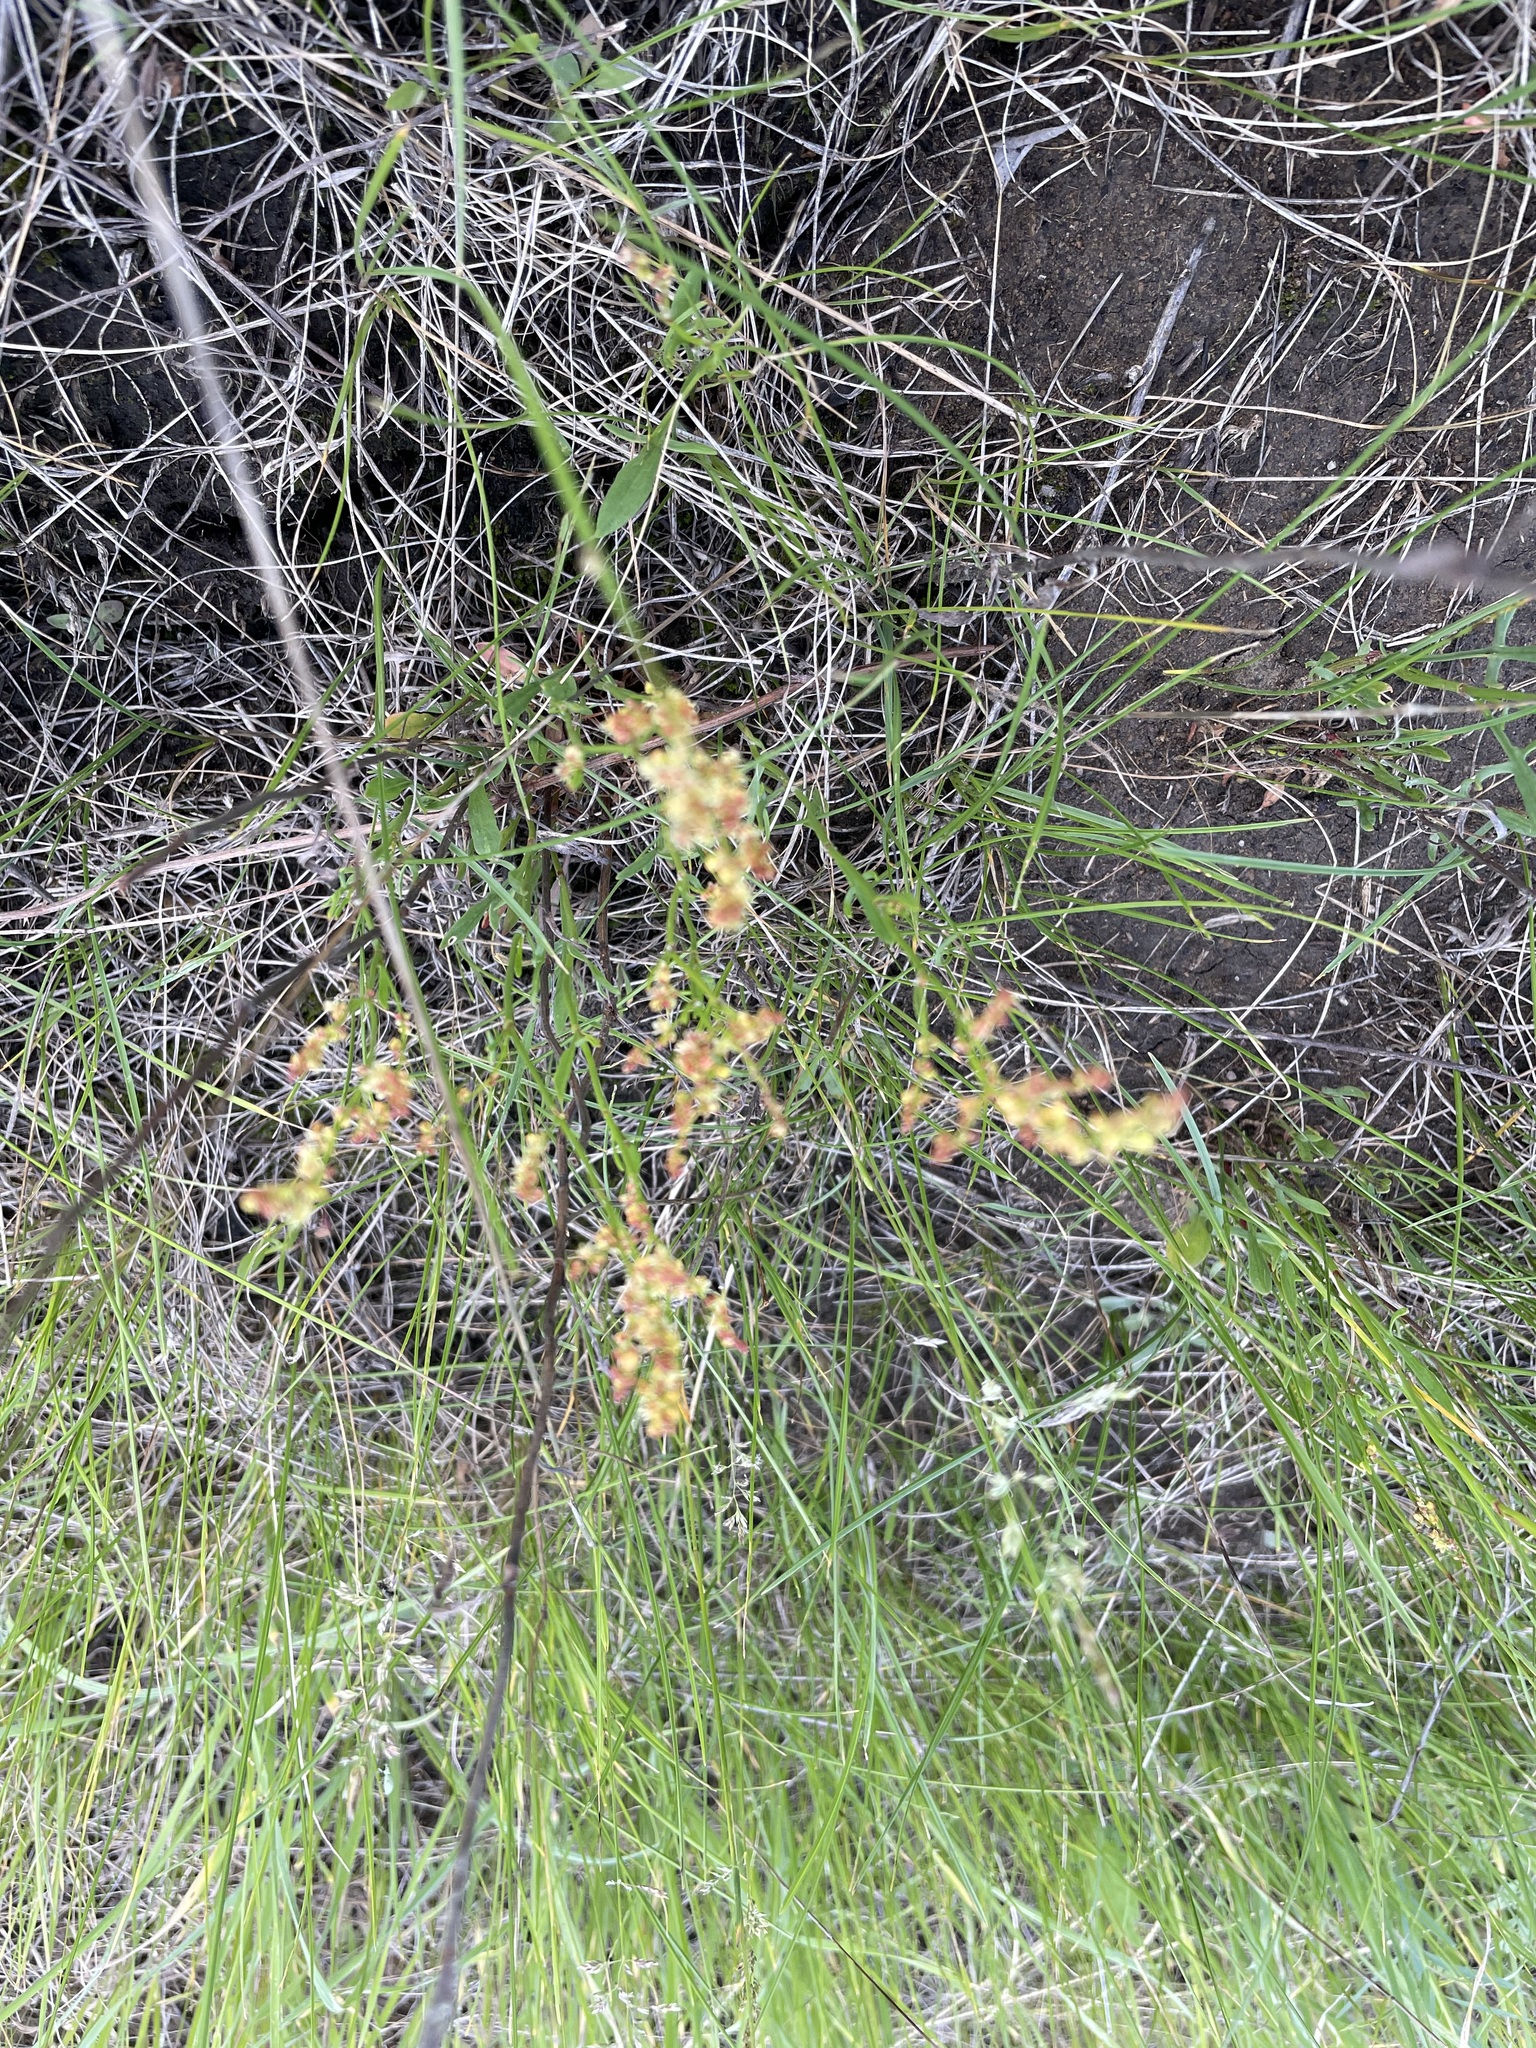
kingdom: Plantae
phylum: Tracheophyta
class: Magnoliopsida
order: Caryophyllales
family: Polygonaceae
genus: Rumex
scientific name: Rumex acetosella
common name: Common sheep sorrel
